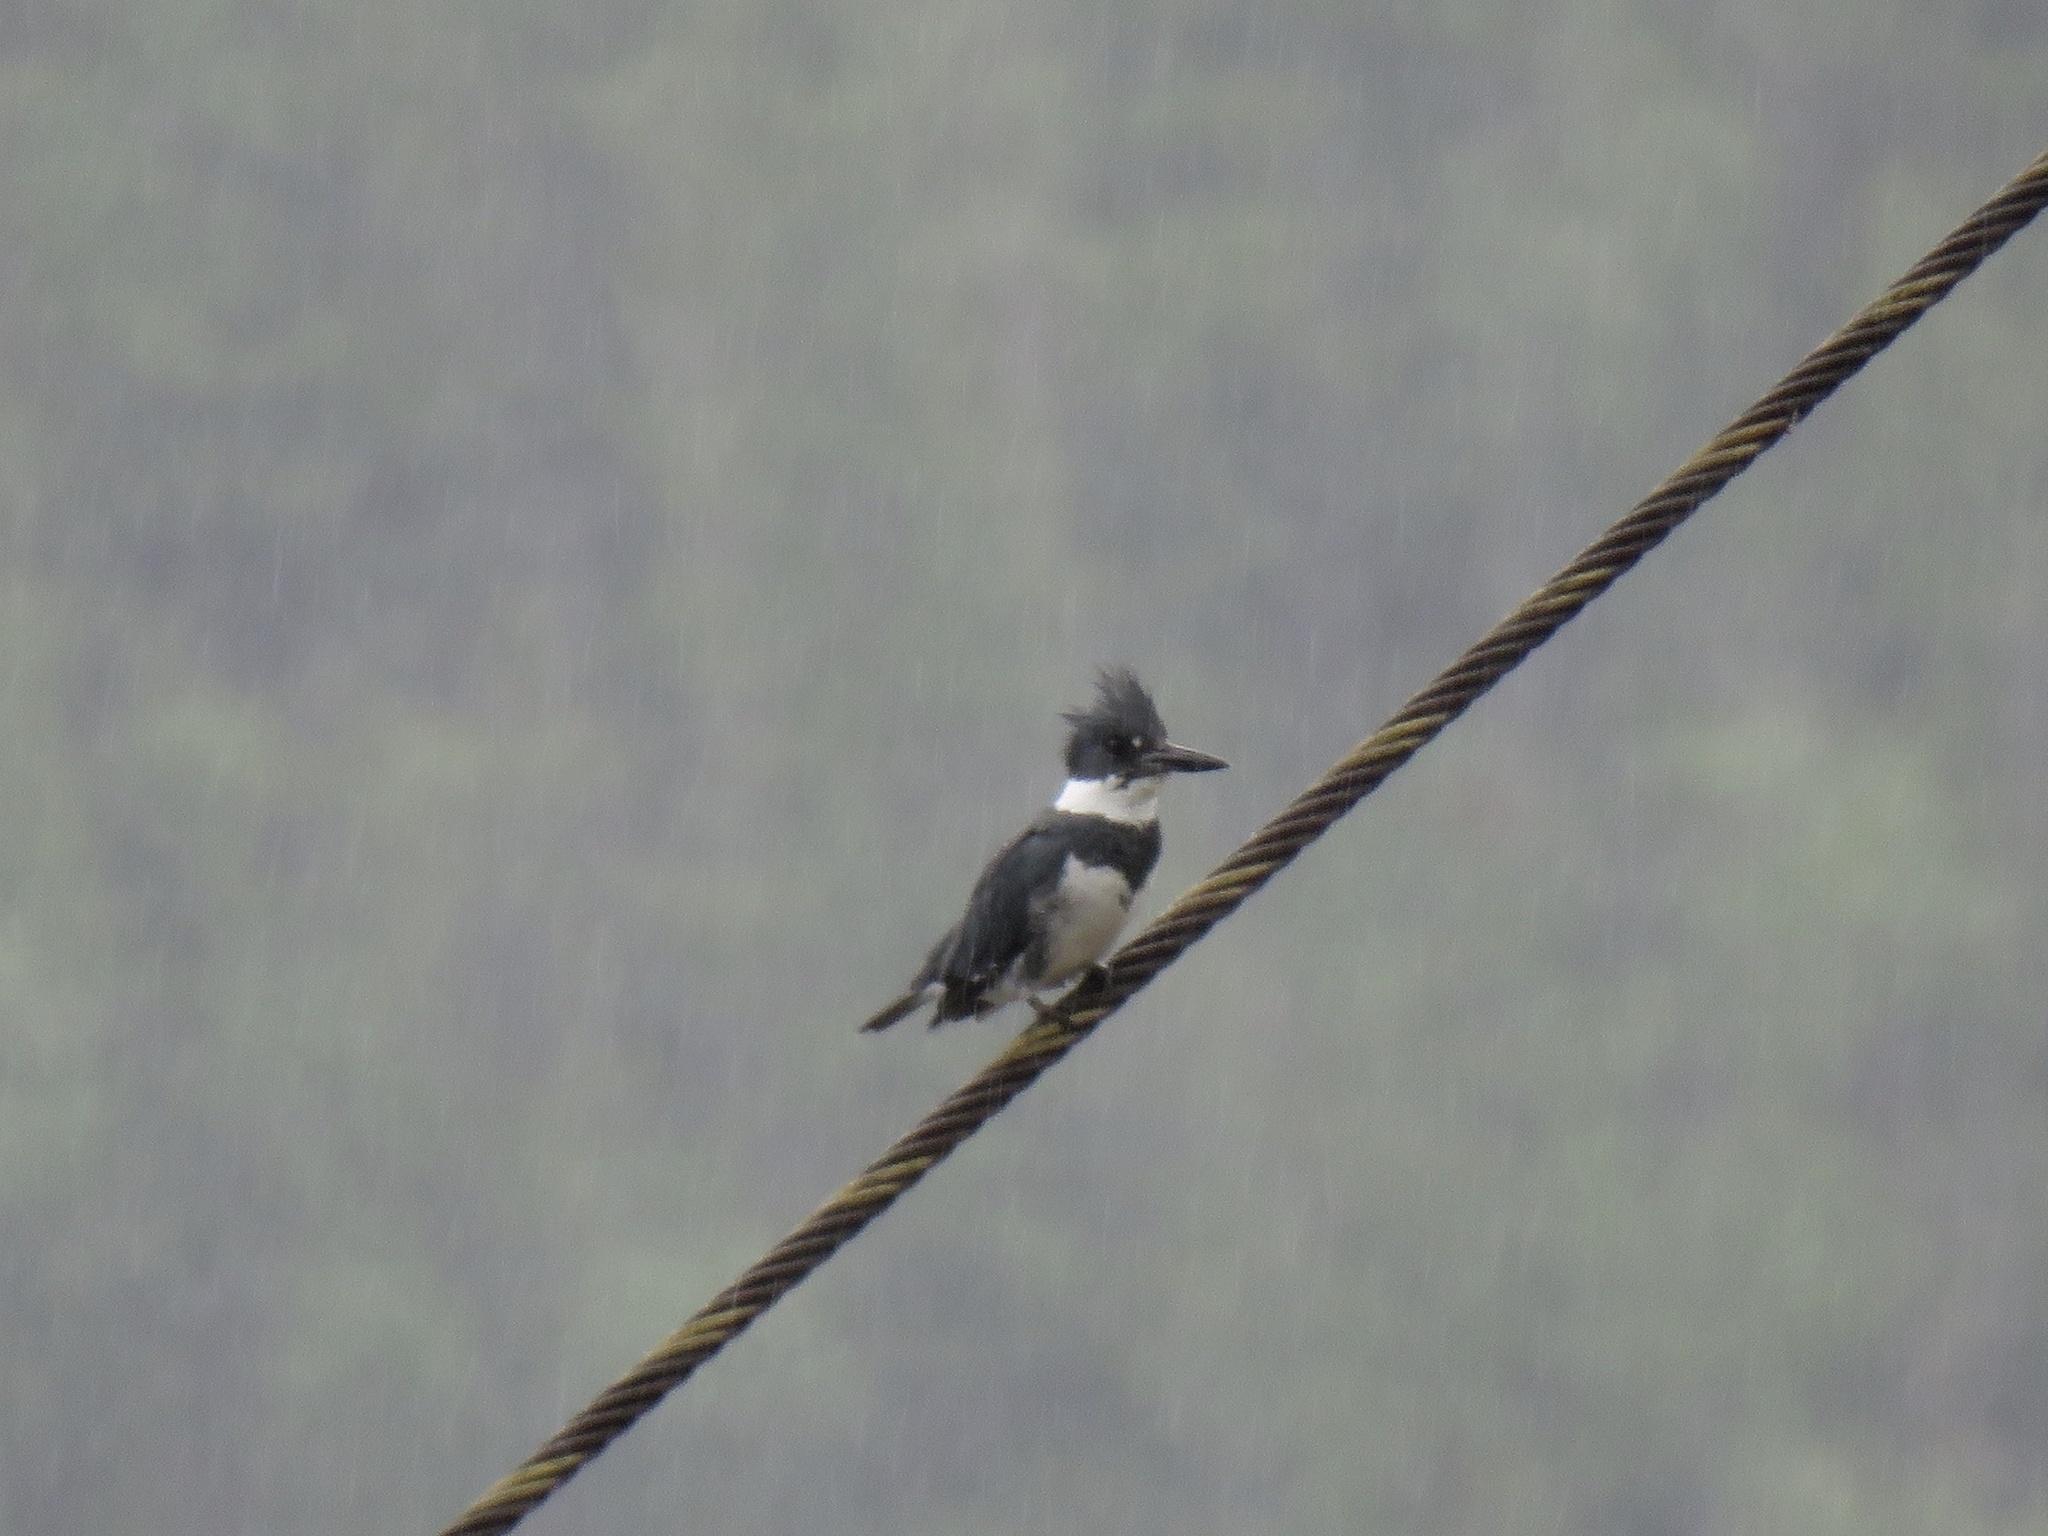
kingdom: Animalia
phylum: Chordata
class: Aves
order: Coraciiformes
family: Alcedinidae
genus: Megaceryle
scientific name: Megaceryle alcyon
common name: Belted kingfisher
